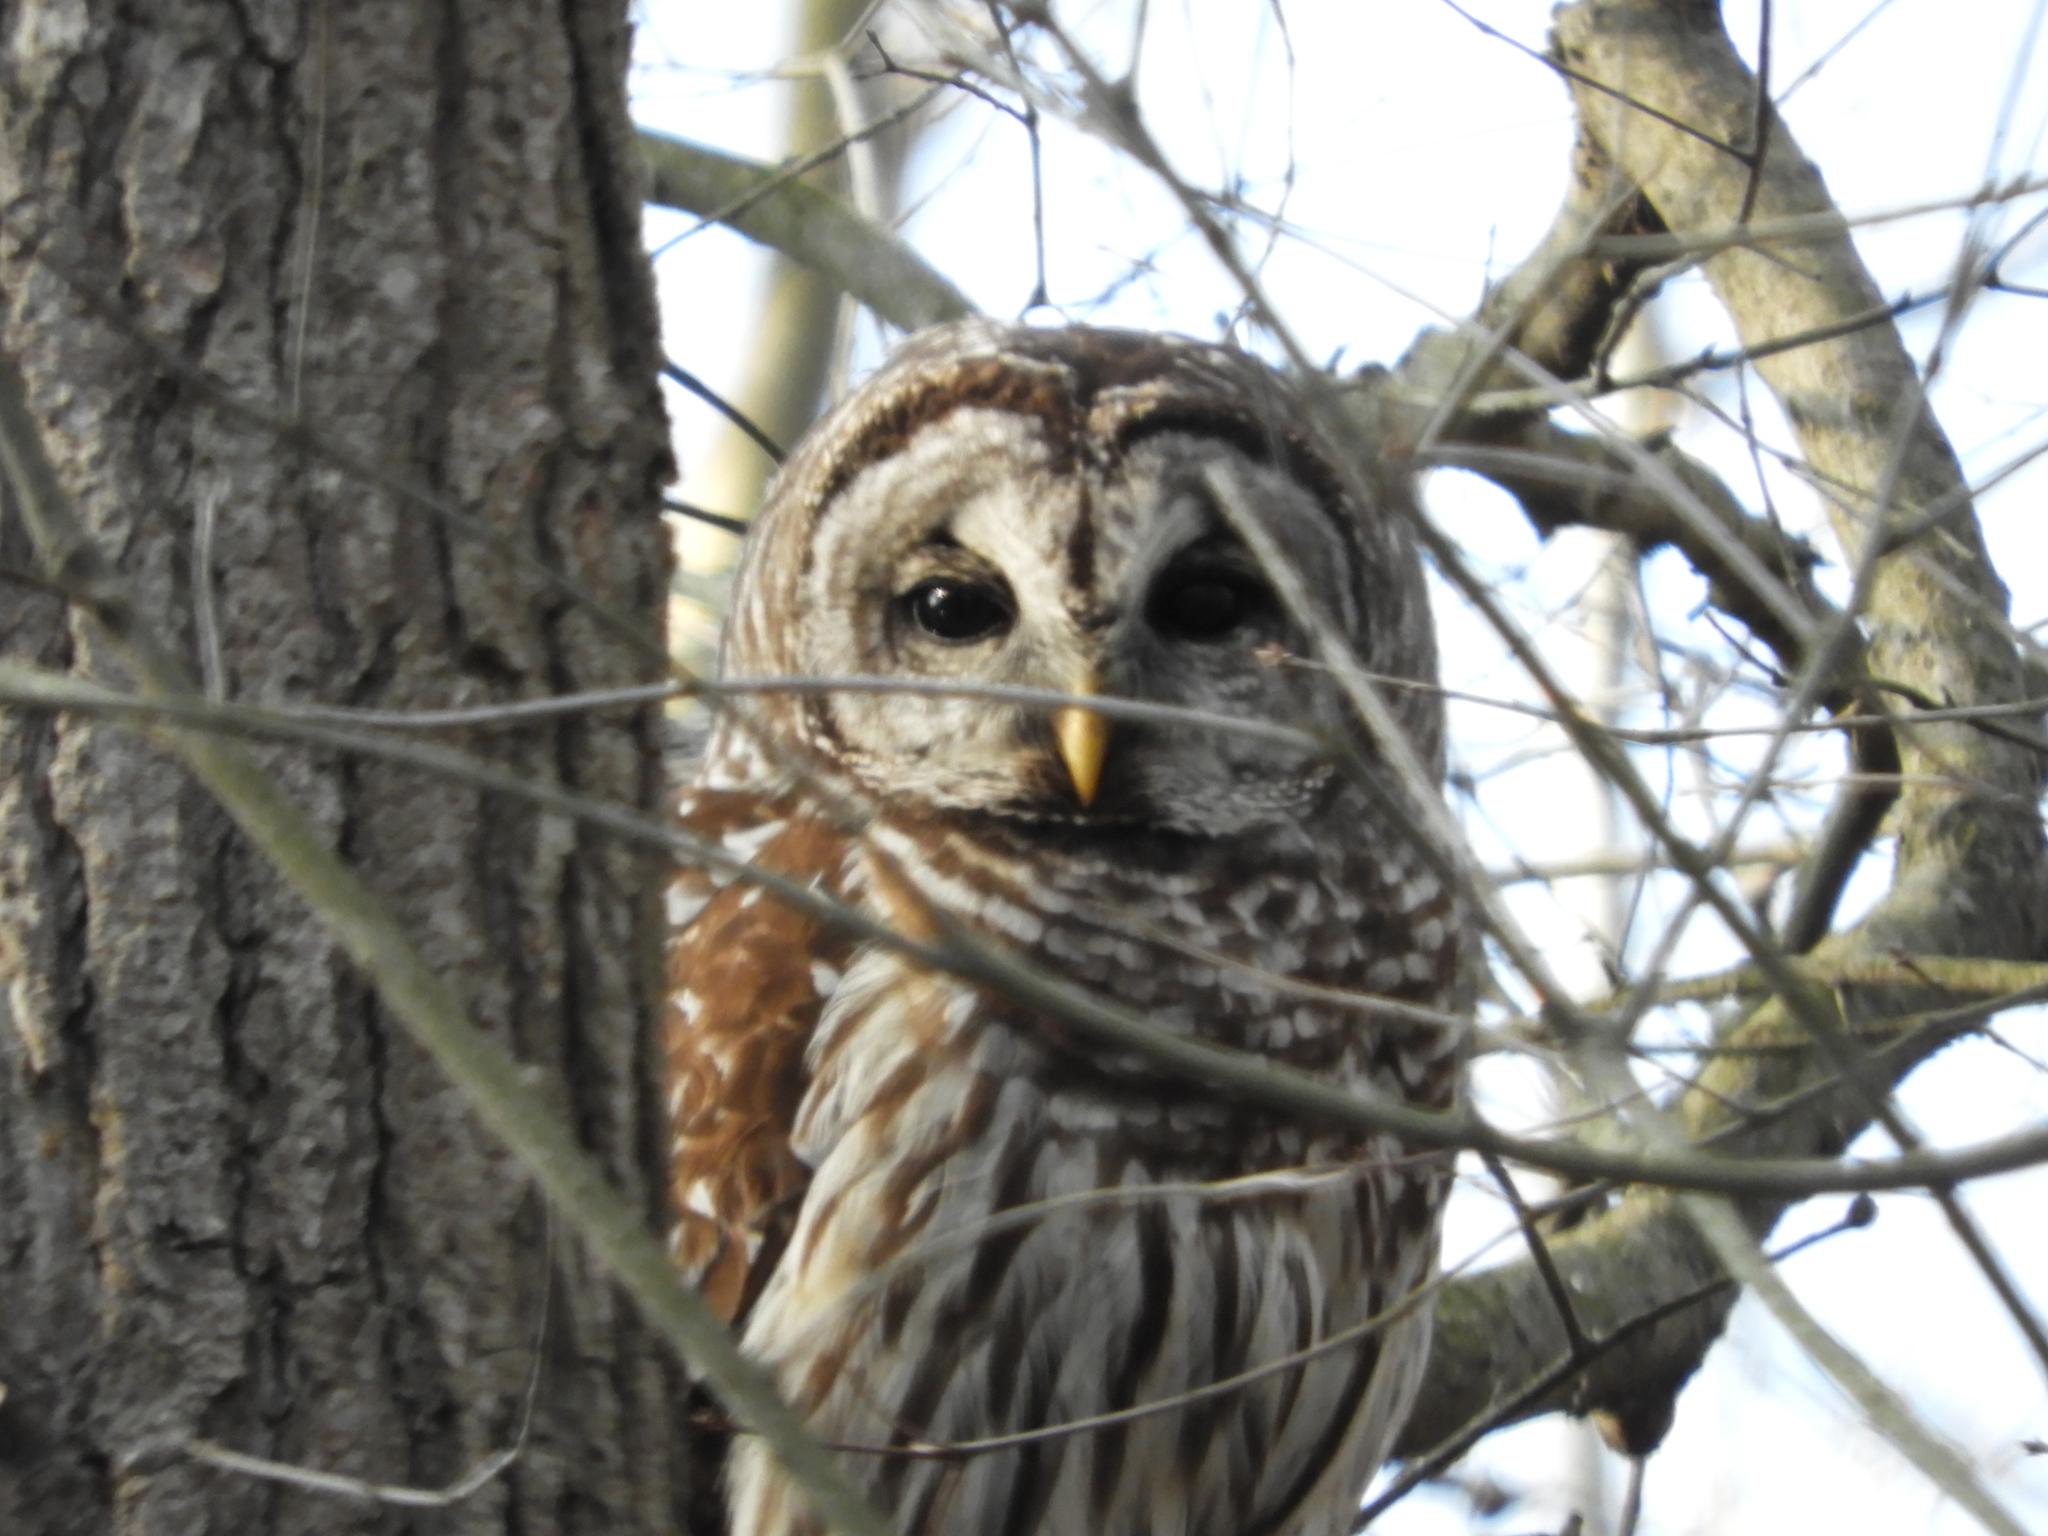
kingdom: Animalia
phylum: Chordata
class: Aves
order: Strigiformes
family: Strigidae
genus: Strix
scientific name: Strix varia
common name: Barred owl
